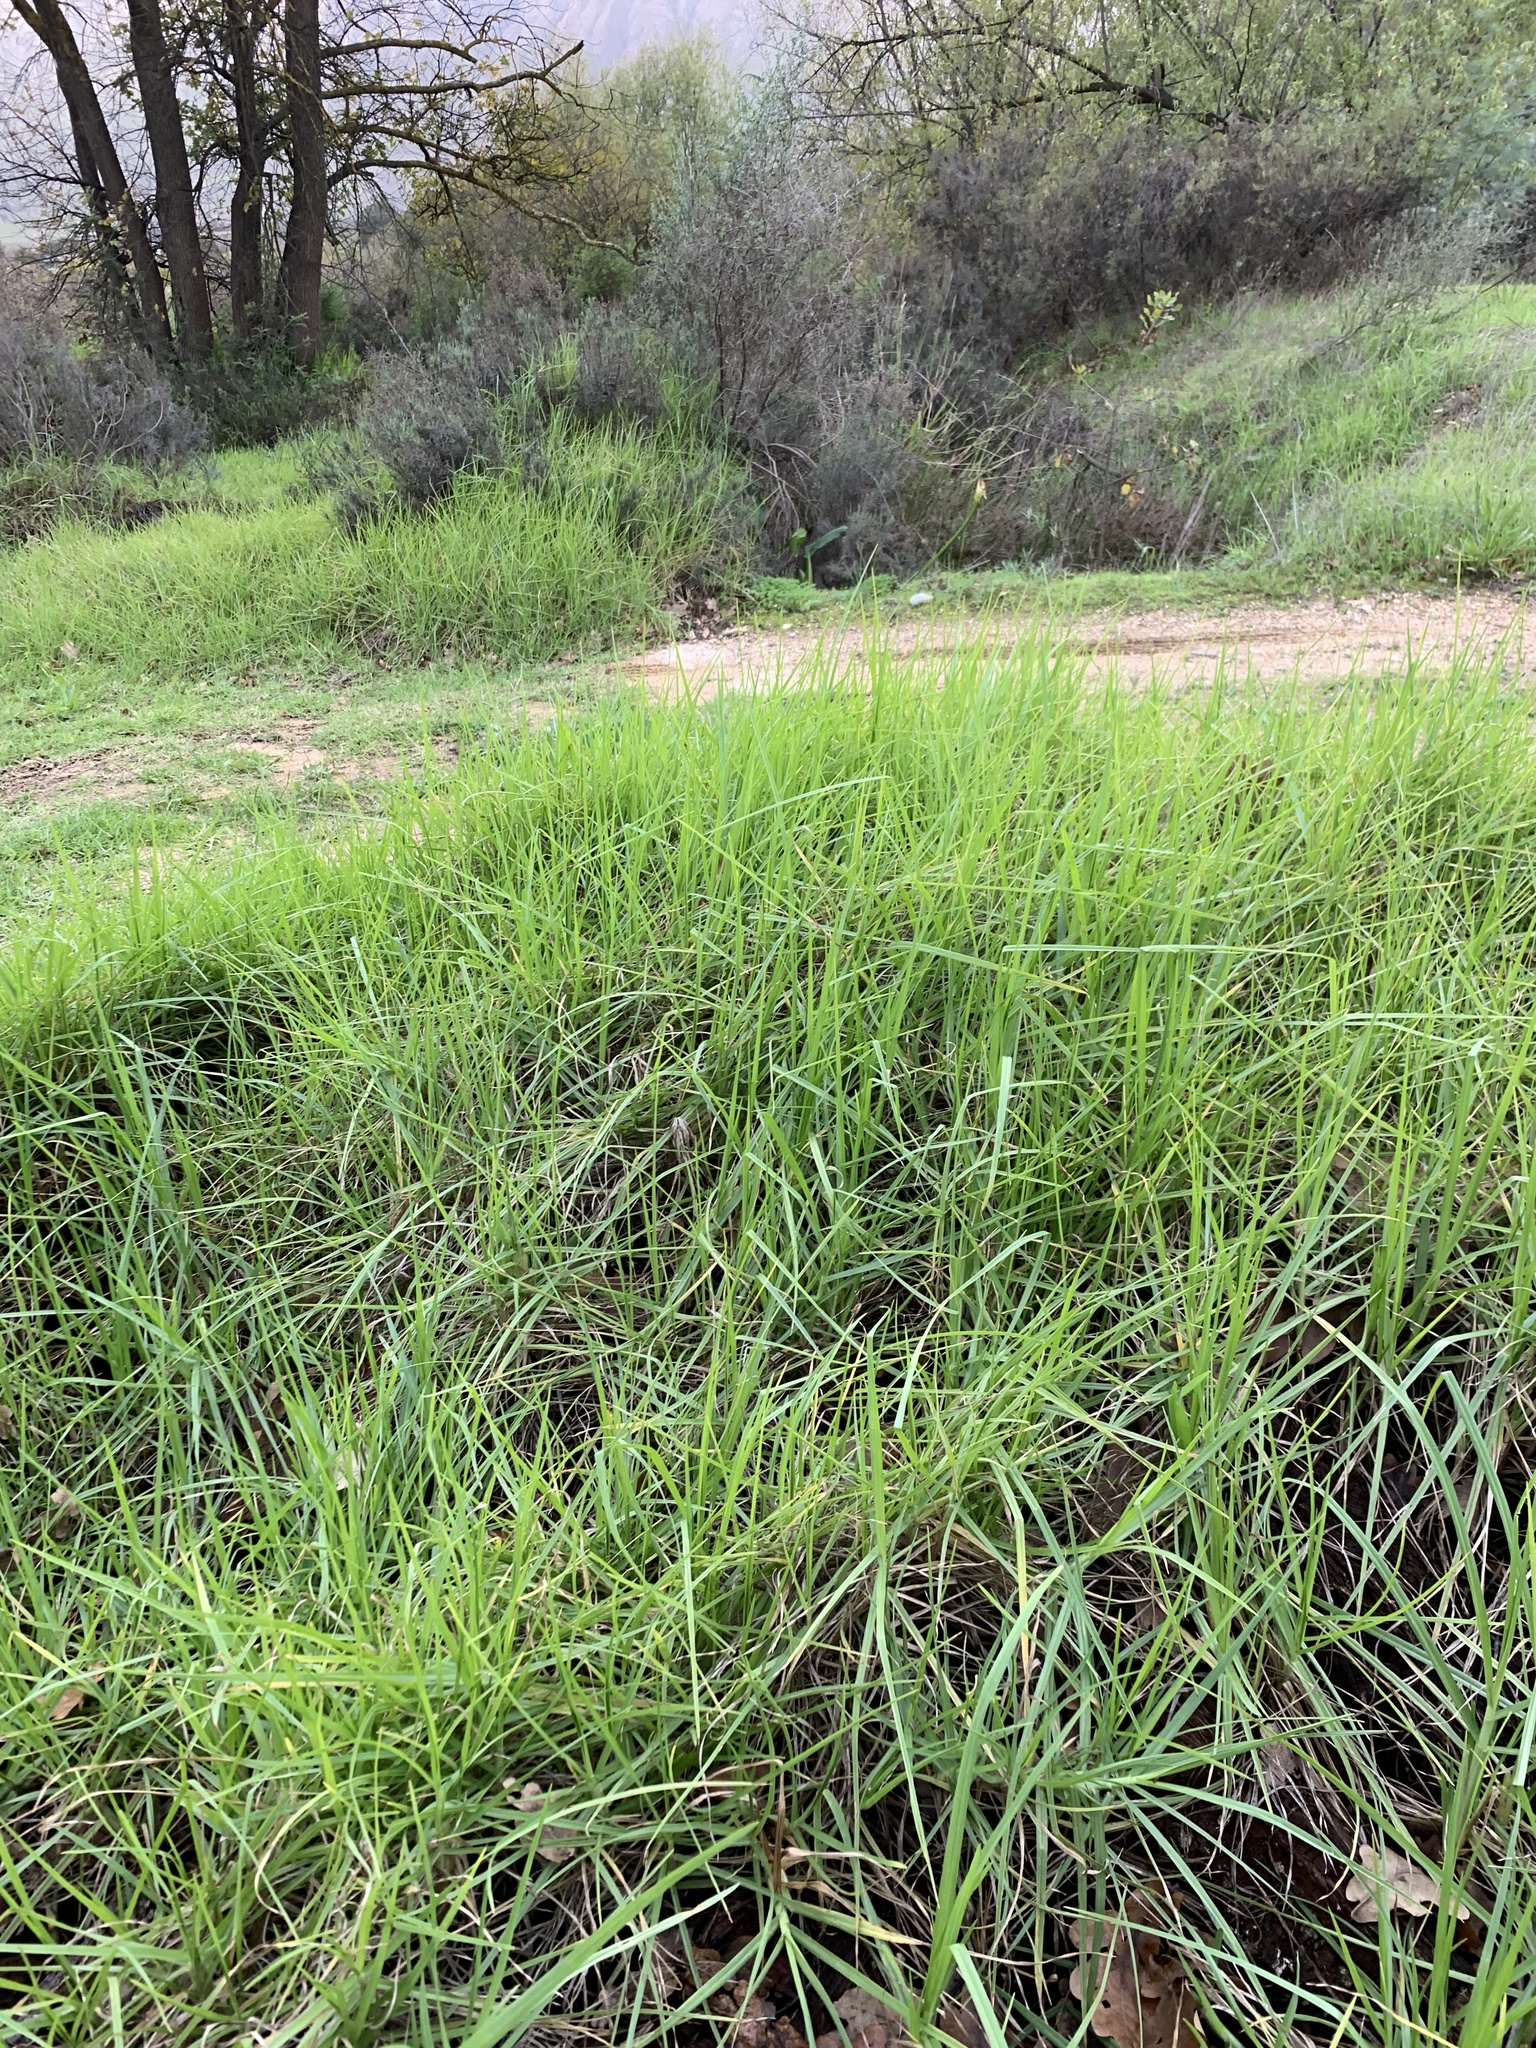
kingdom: Plantae
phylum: Tracheophyta
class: Liliopsida
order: Poales
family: Poaceae
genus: Cenchrus
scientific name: Cenchrus clandestinus
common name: Kikuyugrass
